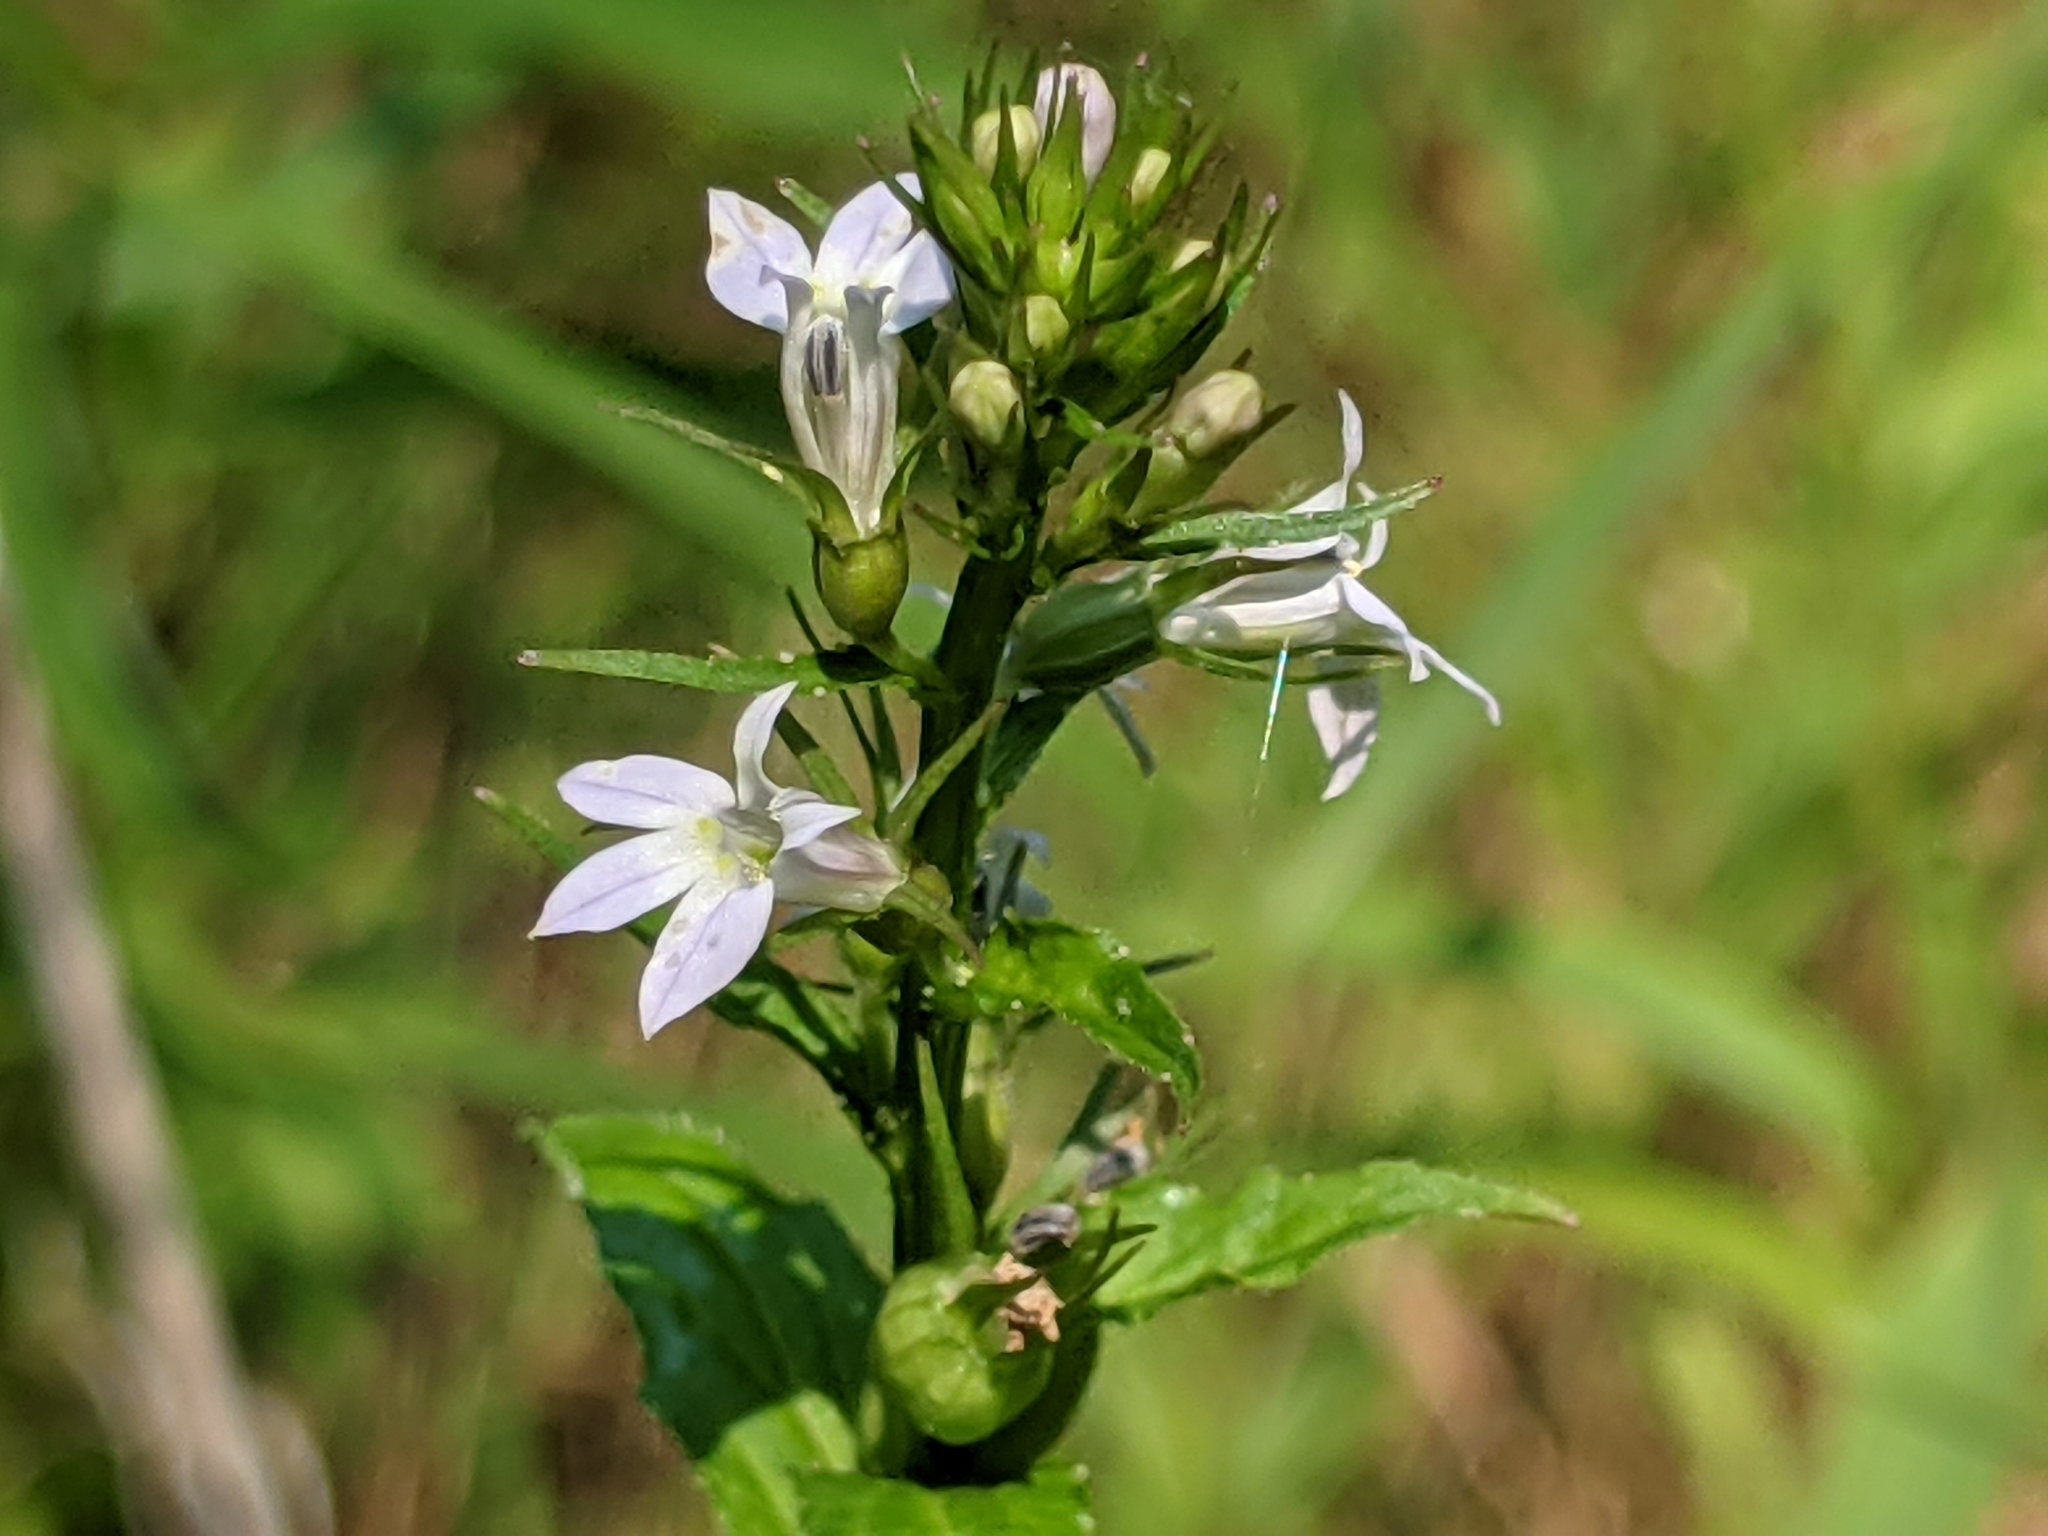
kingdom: Plantae
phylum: Tracheophyta
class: Magnoliopsida
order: Asterales
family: Campanulaceae
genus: Lobelia
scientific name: Lobelia inflata
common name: Indian tobacco
